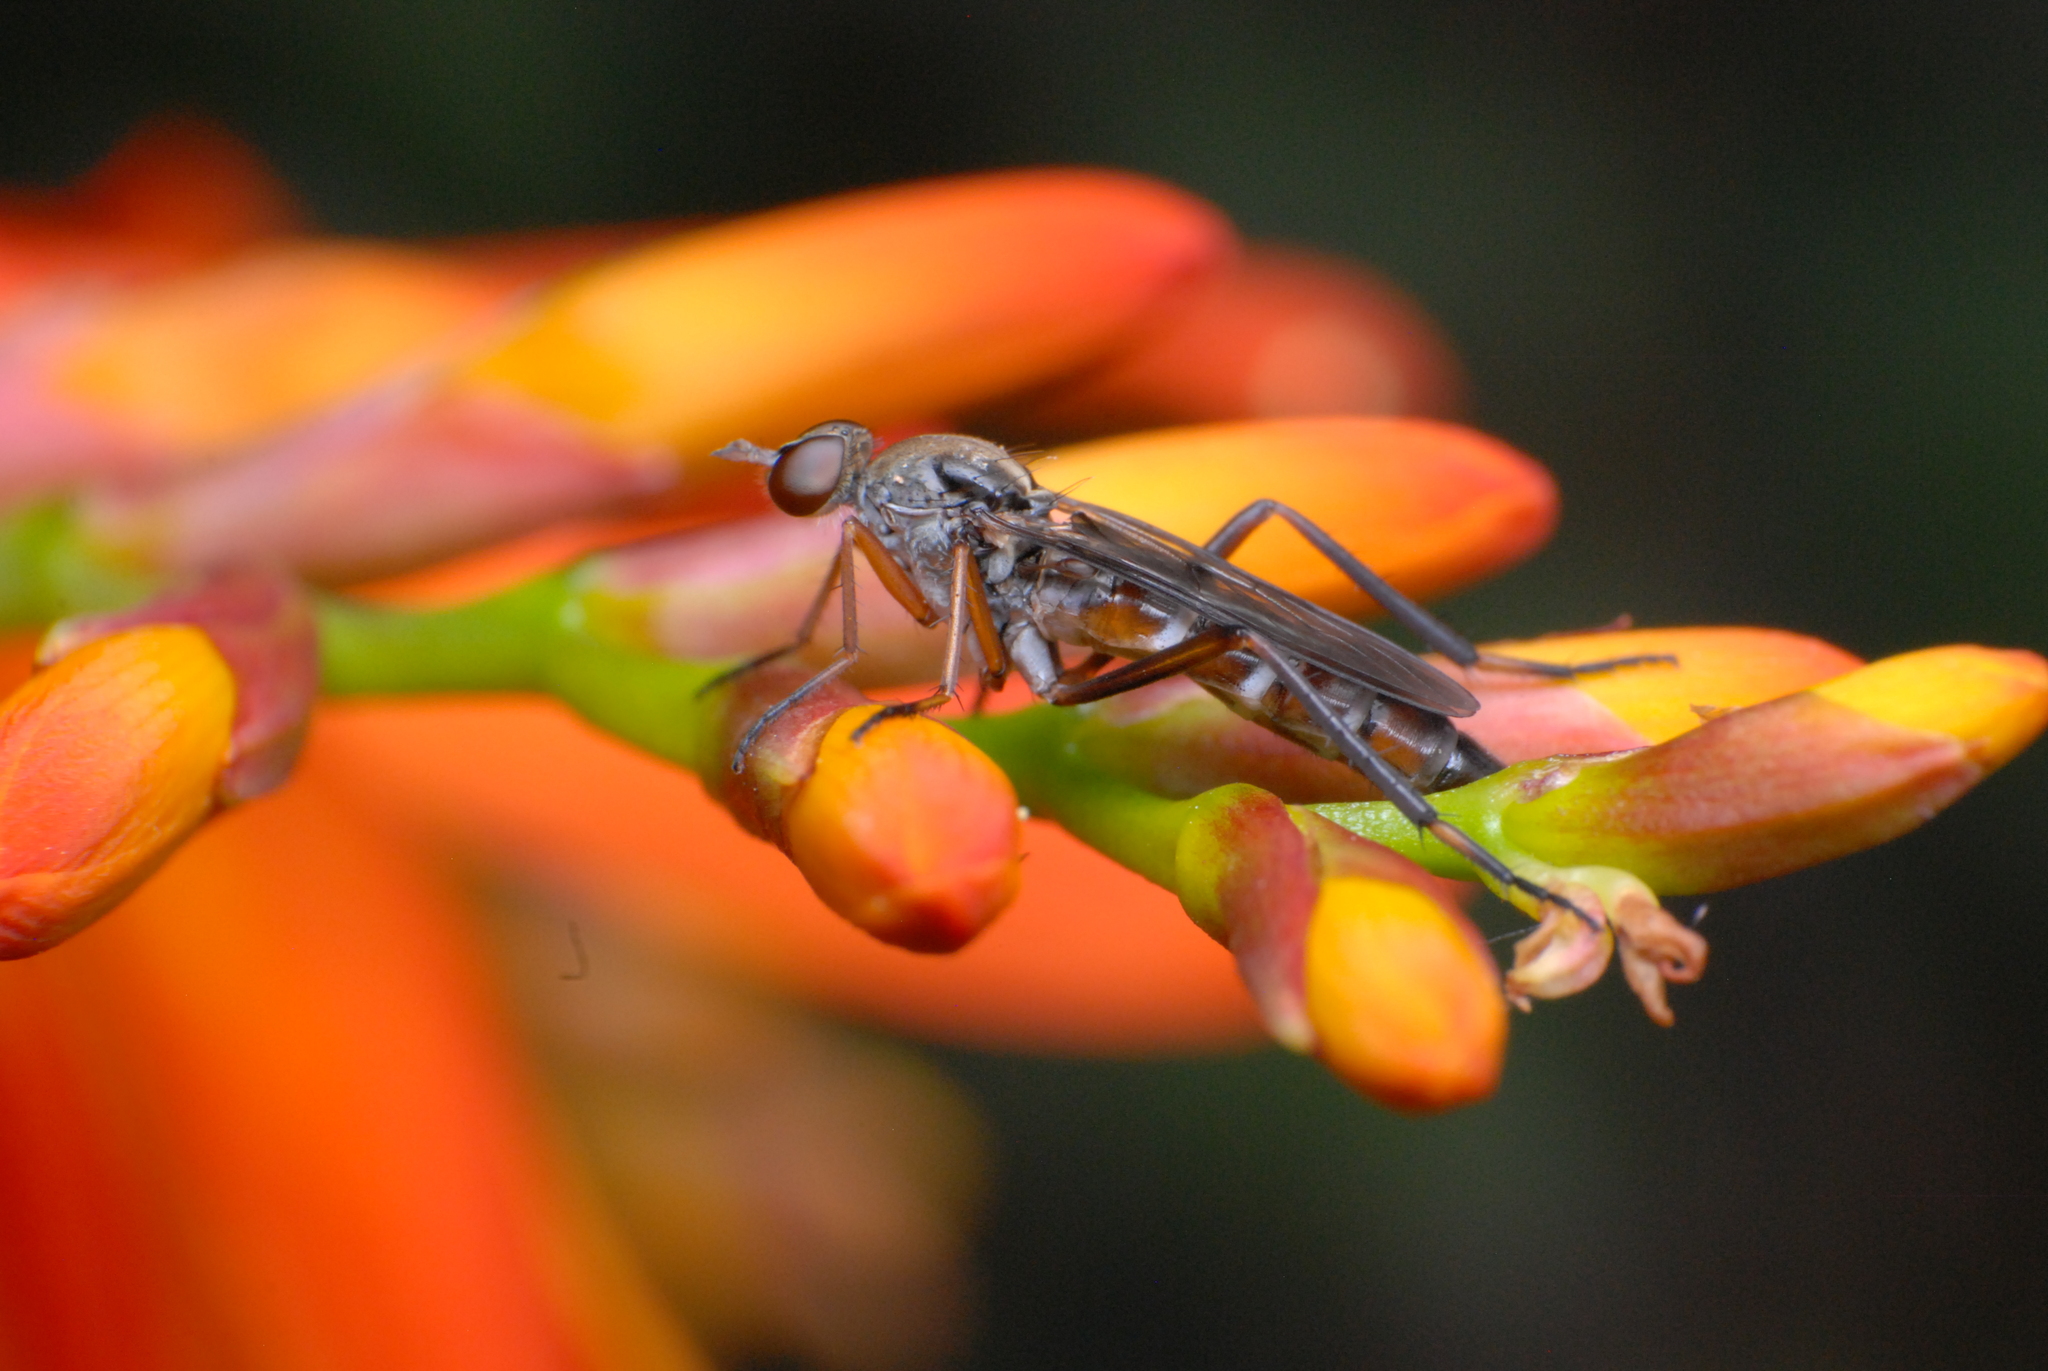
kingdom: Animalia
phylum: Arthropoda
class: Insecta
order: Diptera
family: Therevidae
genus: Taenogerella
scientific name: Taenogerella elizabethae
